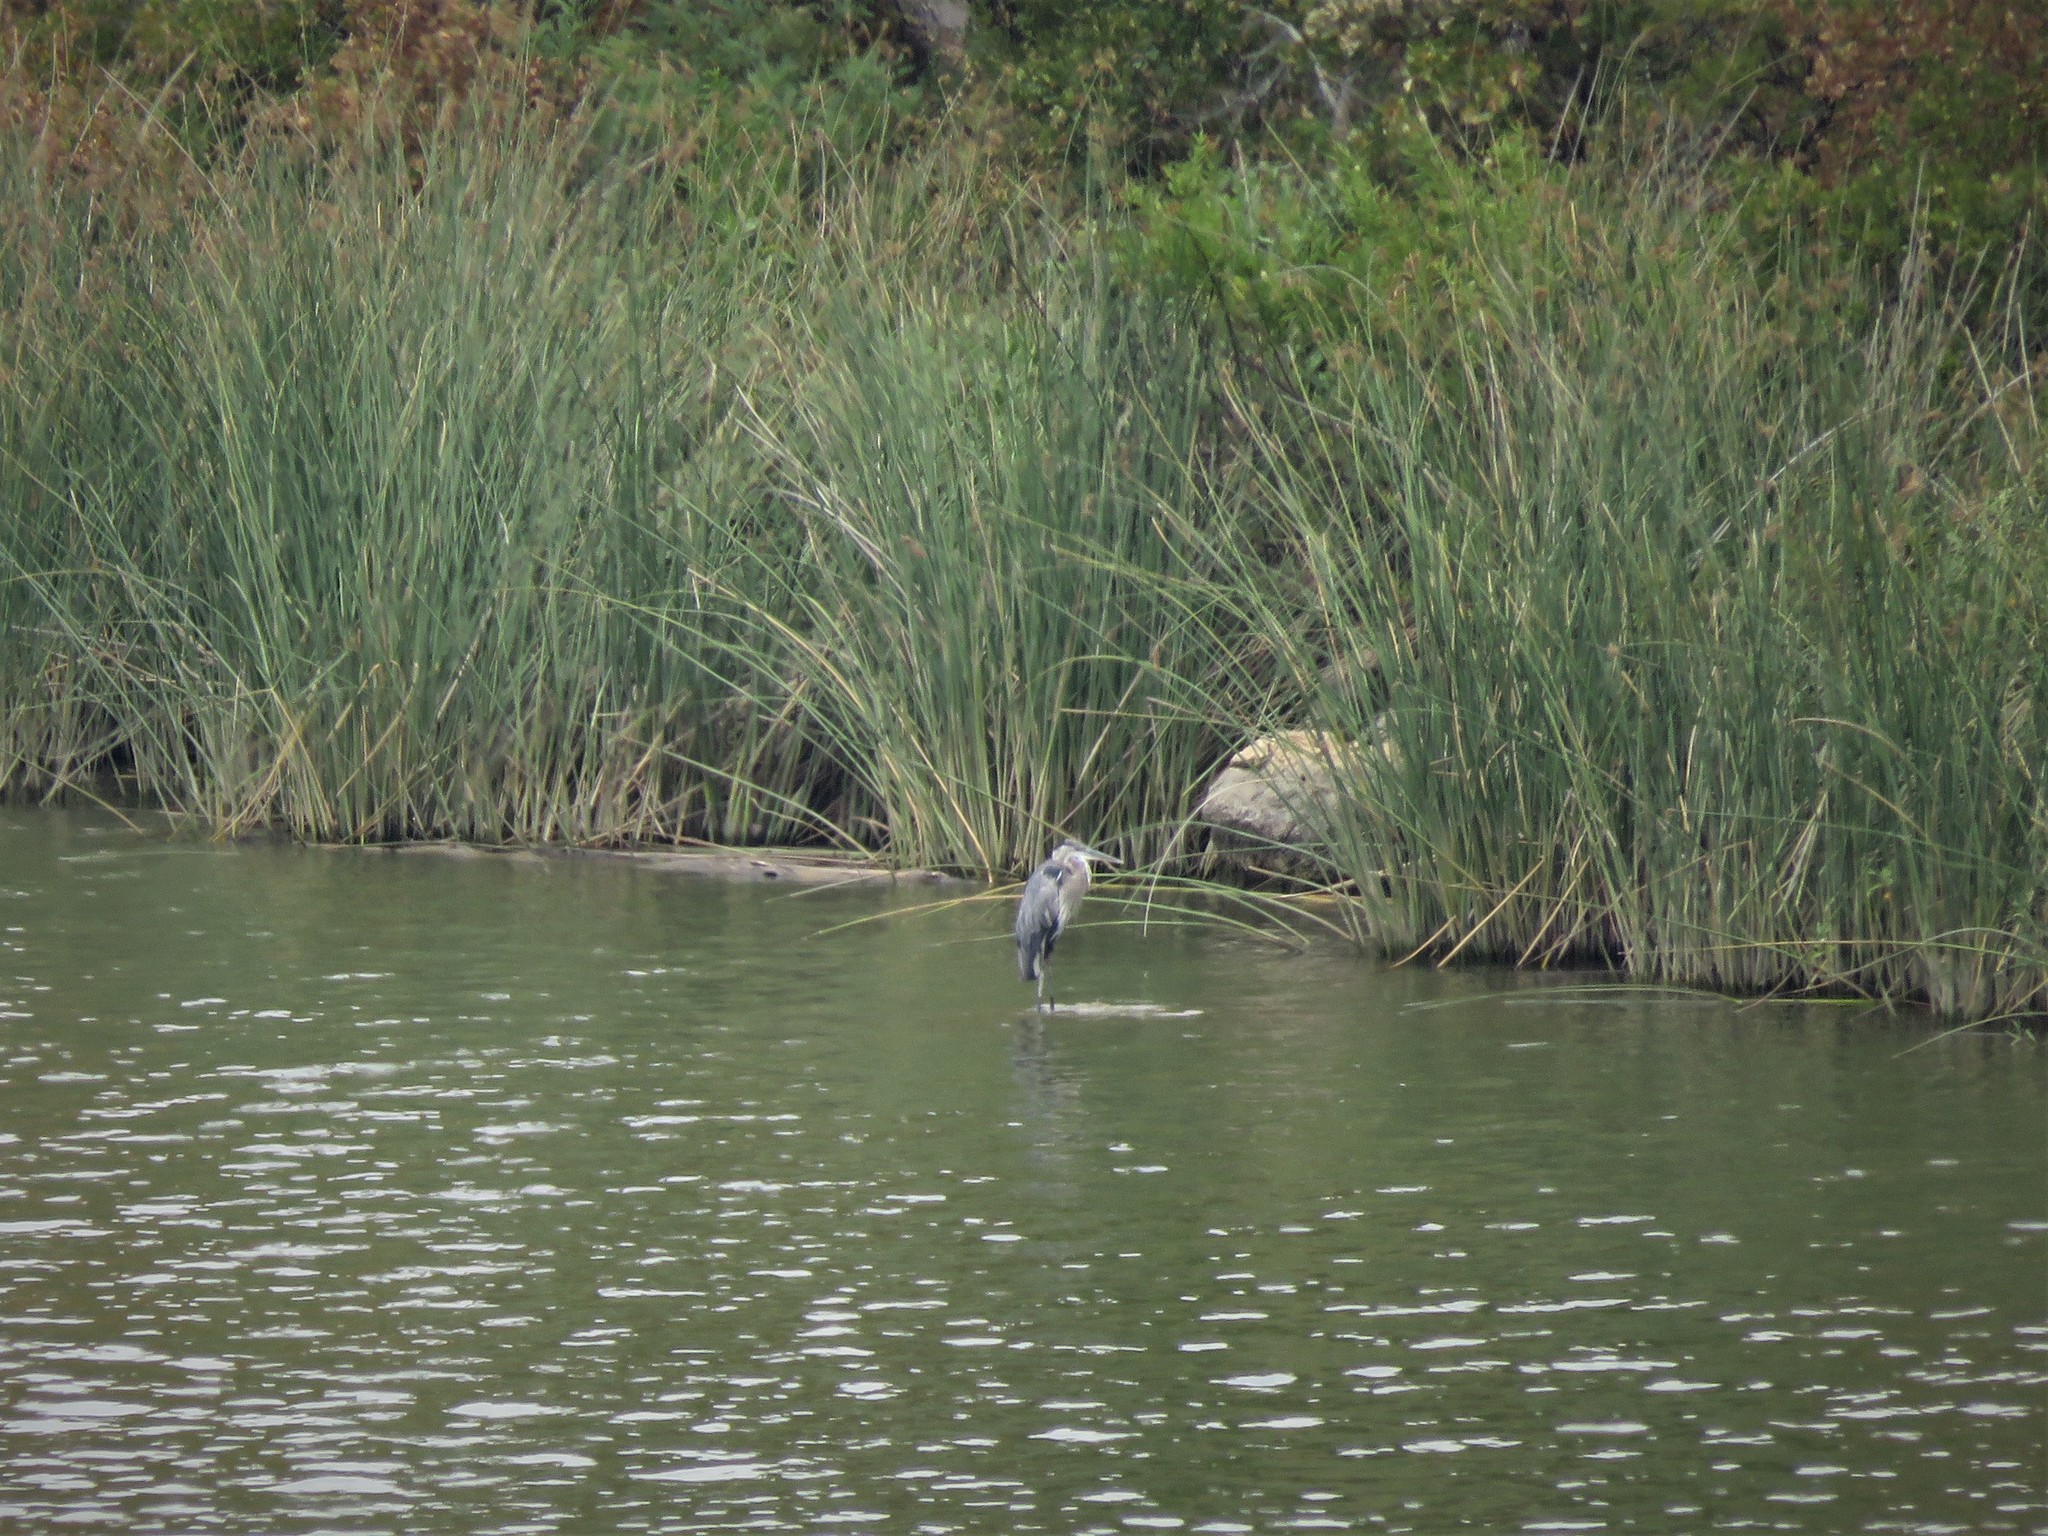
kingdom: Animalia
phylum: Chordata
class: Aves
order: Pelecaniformes
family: Ardeidae
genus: Ardea
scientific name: Ardea herodias
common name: Great blue heron
